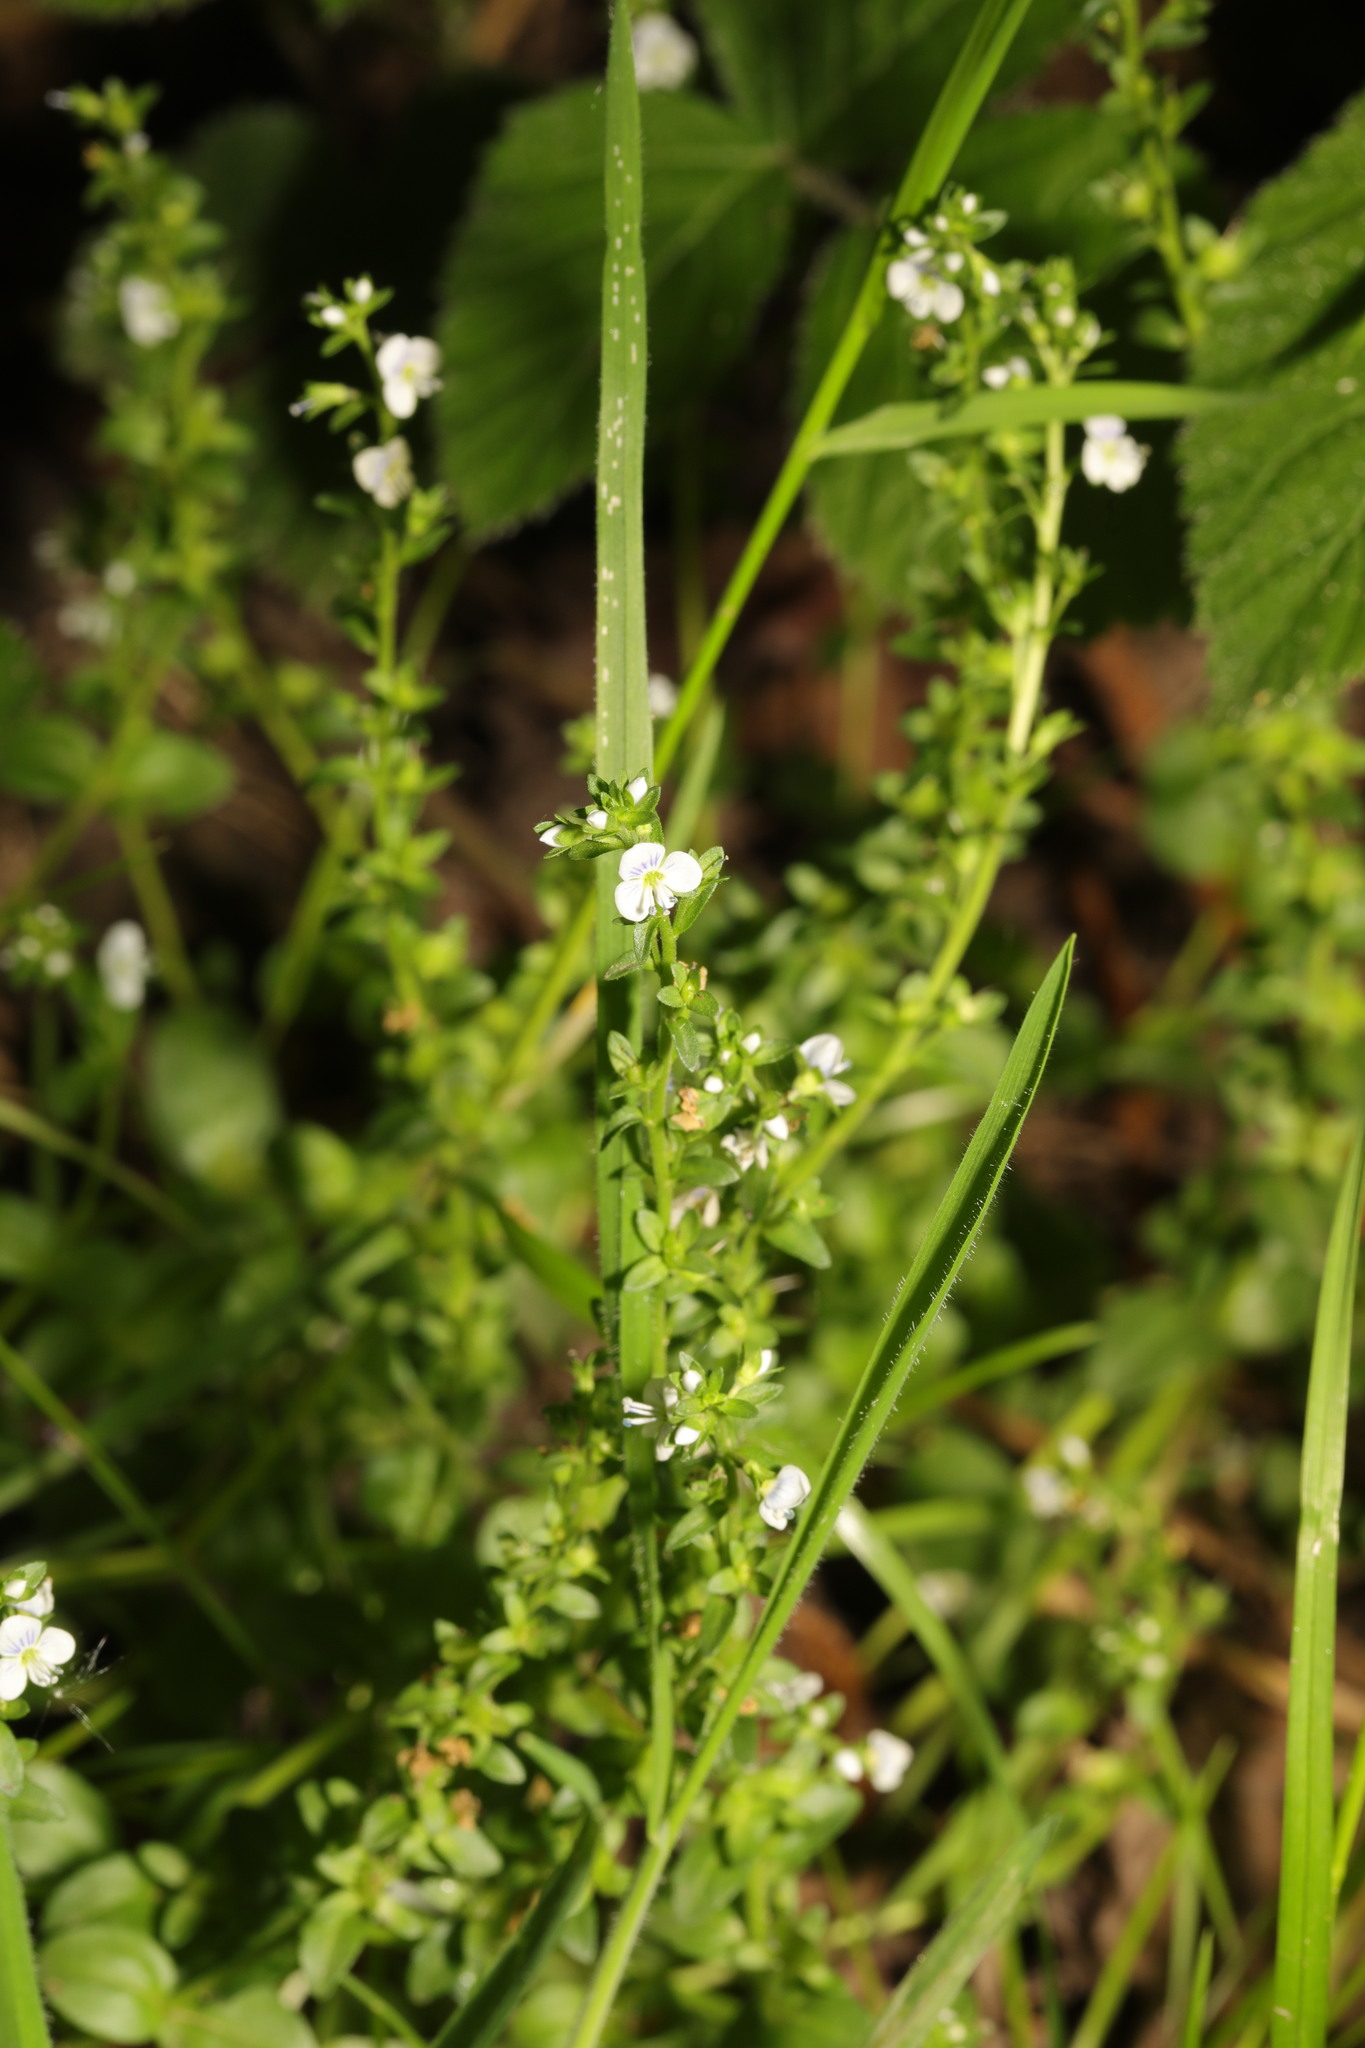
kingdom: Plantae
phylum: Tracheophyta
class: Magnoliopsida
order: Lamiales
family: Plantaginaceae
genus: Veronica
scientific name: Veronica serpyllifolia
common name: Thyme-leaved speedwell
